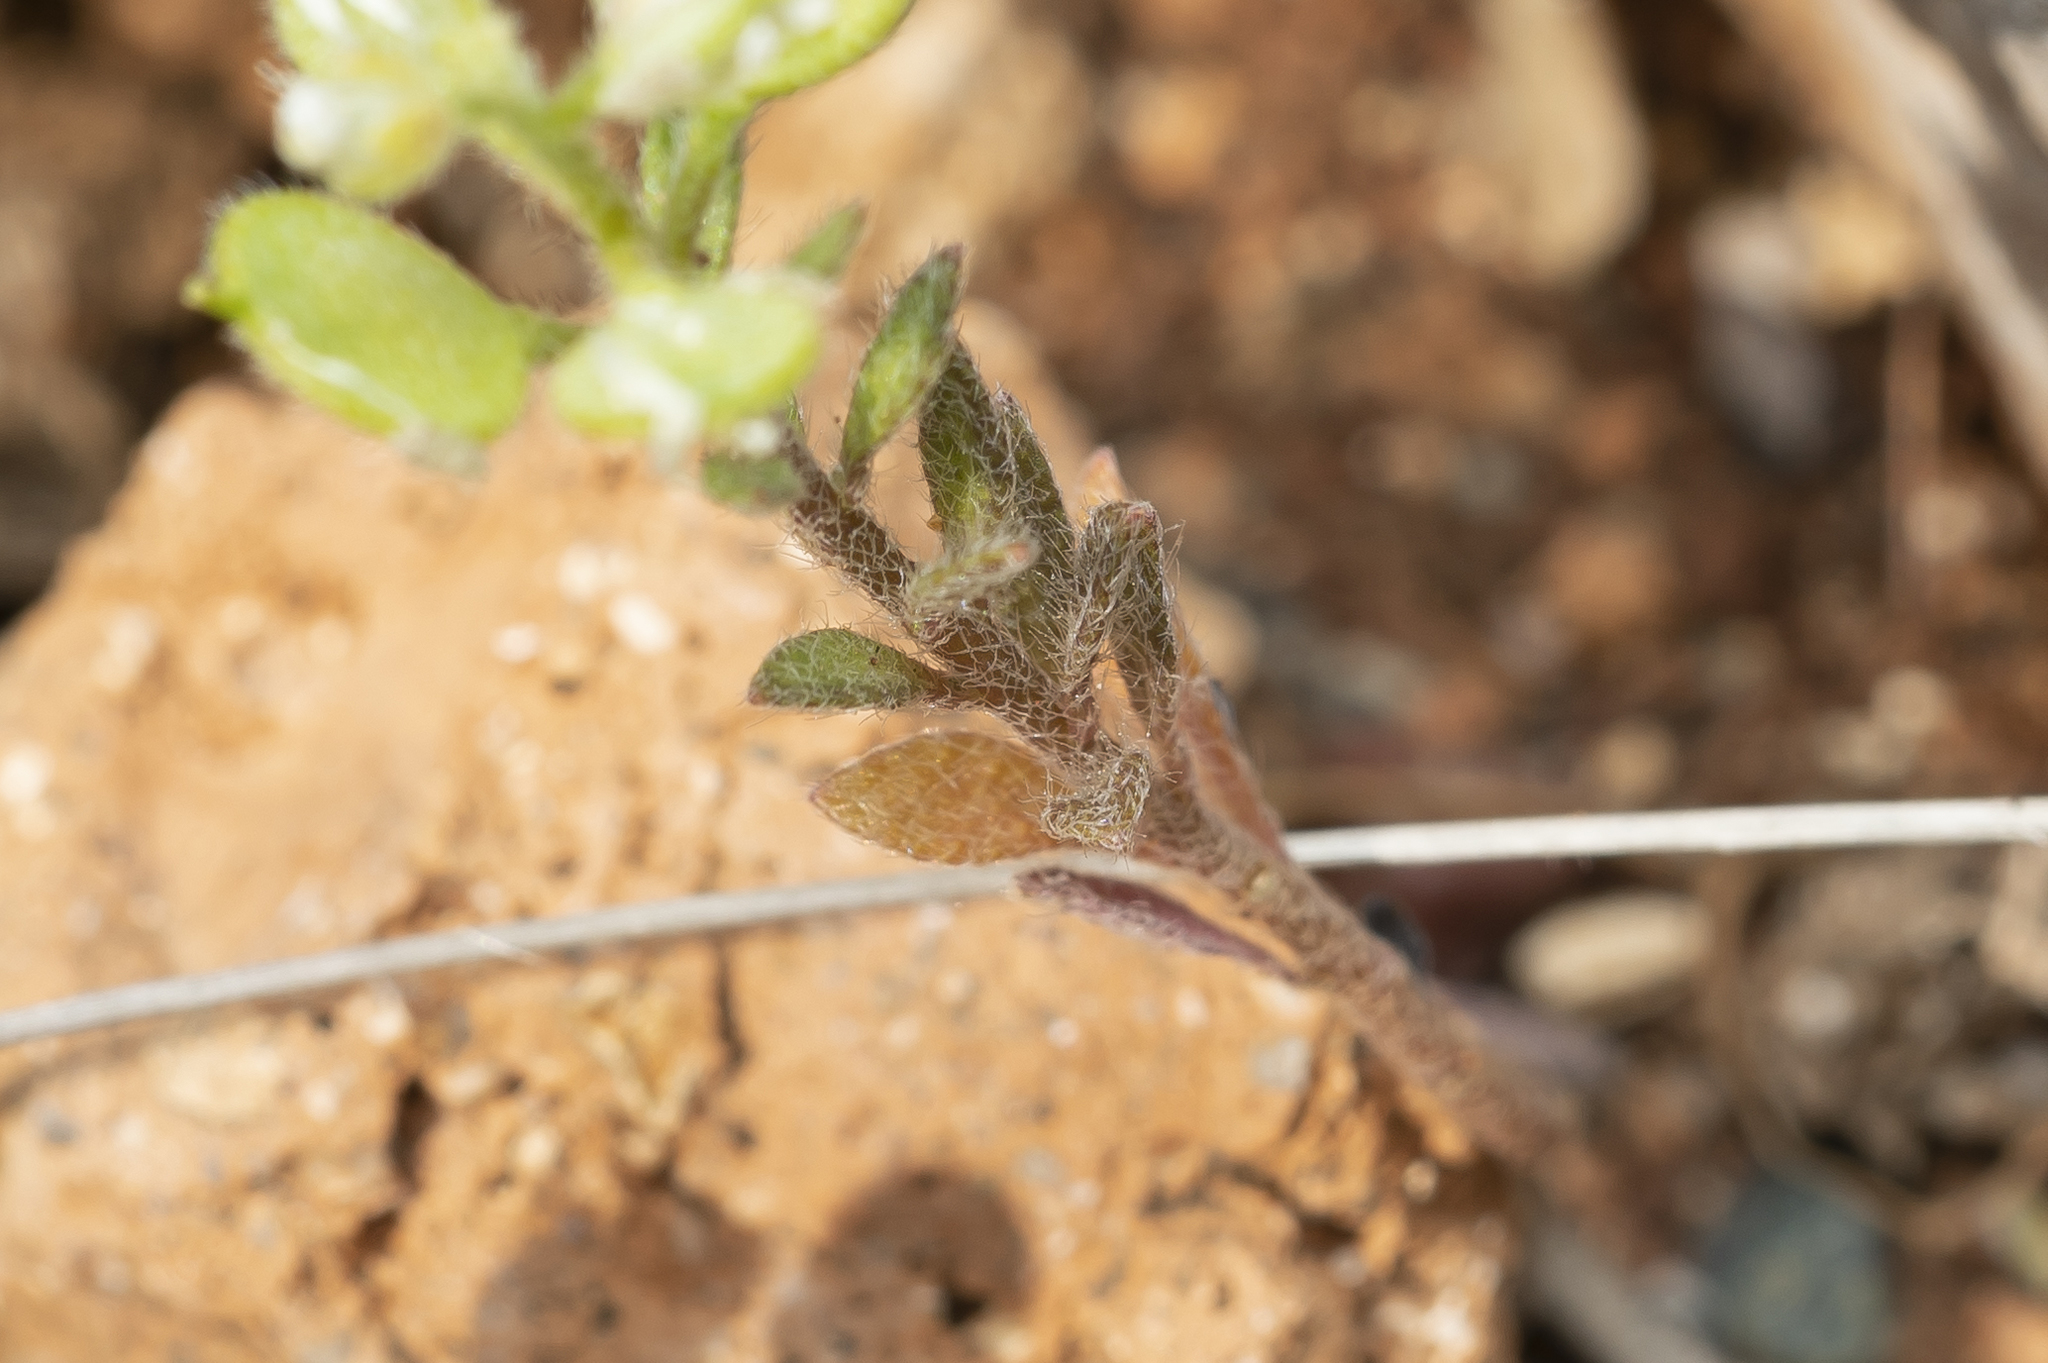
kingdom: Plantae
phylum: Tracheophyta
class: Magnoliopsida
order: Brassicales
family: Brassicaceae
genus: Alyssum
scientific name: Alyssum strigosum
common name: Alyssum
